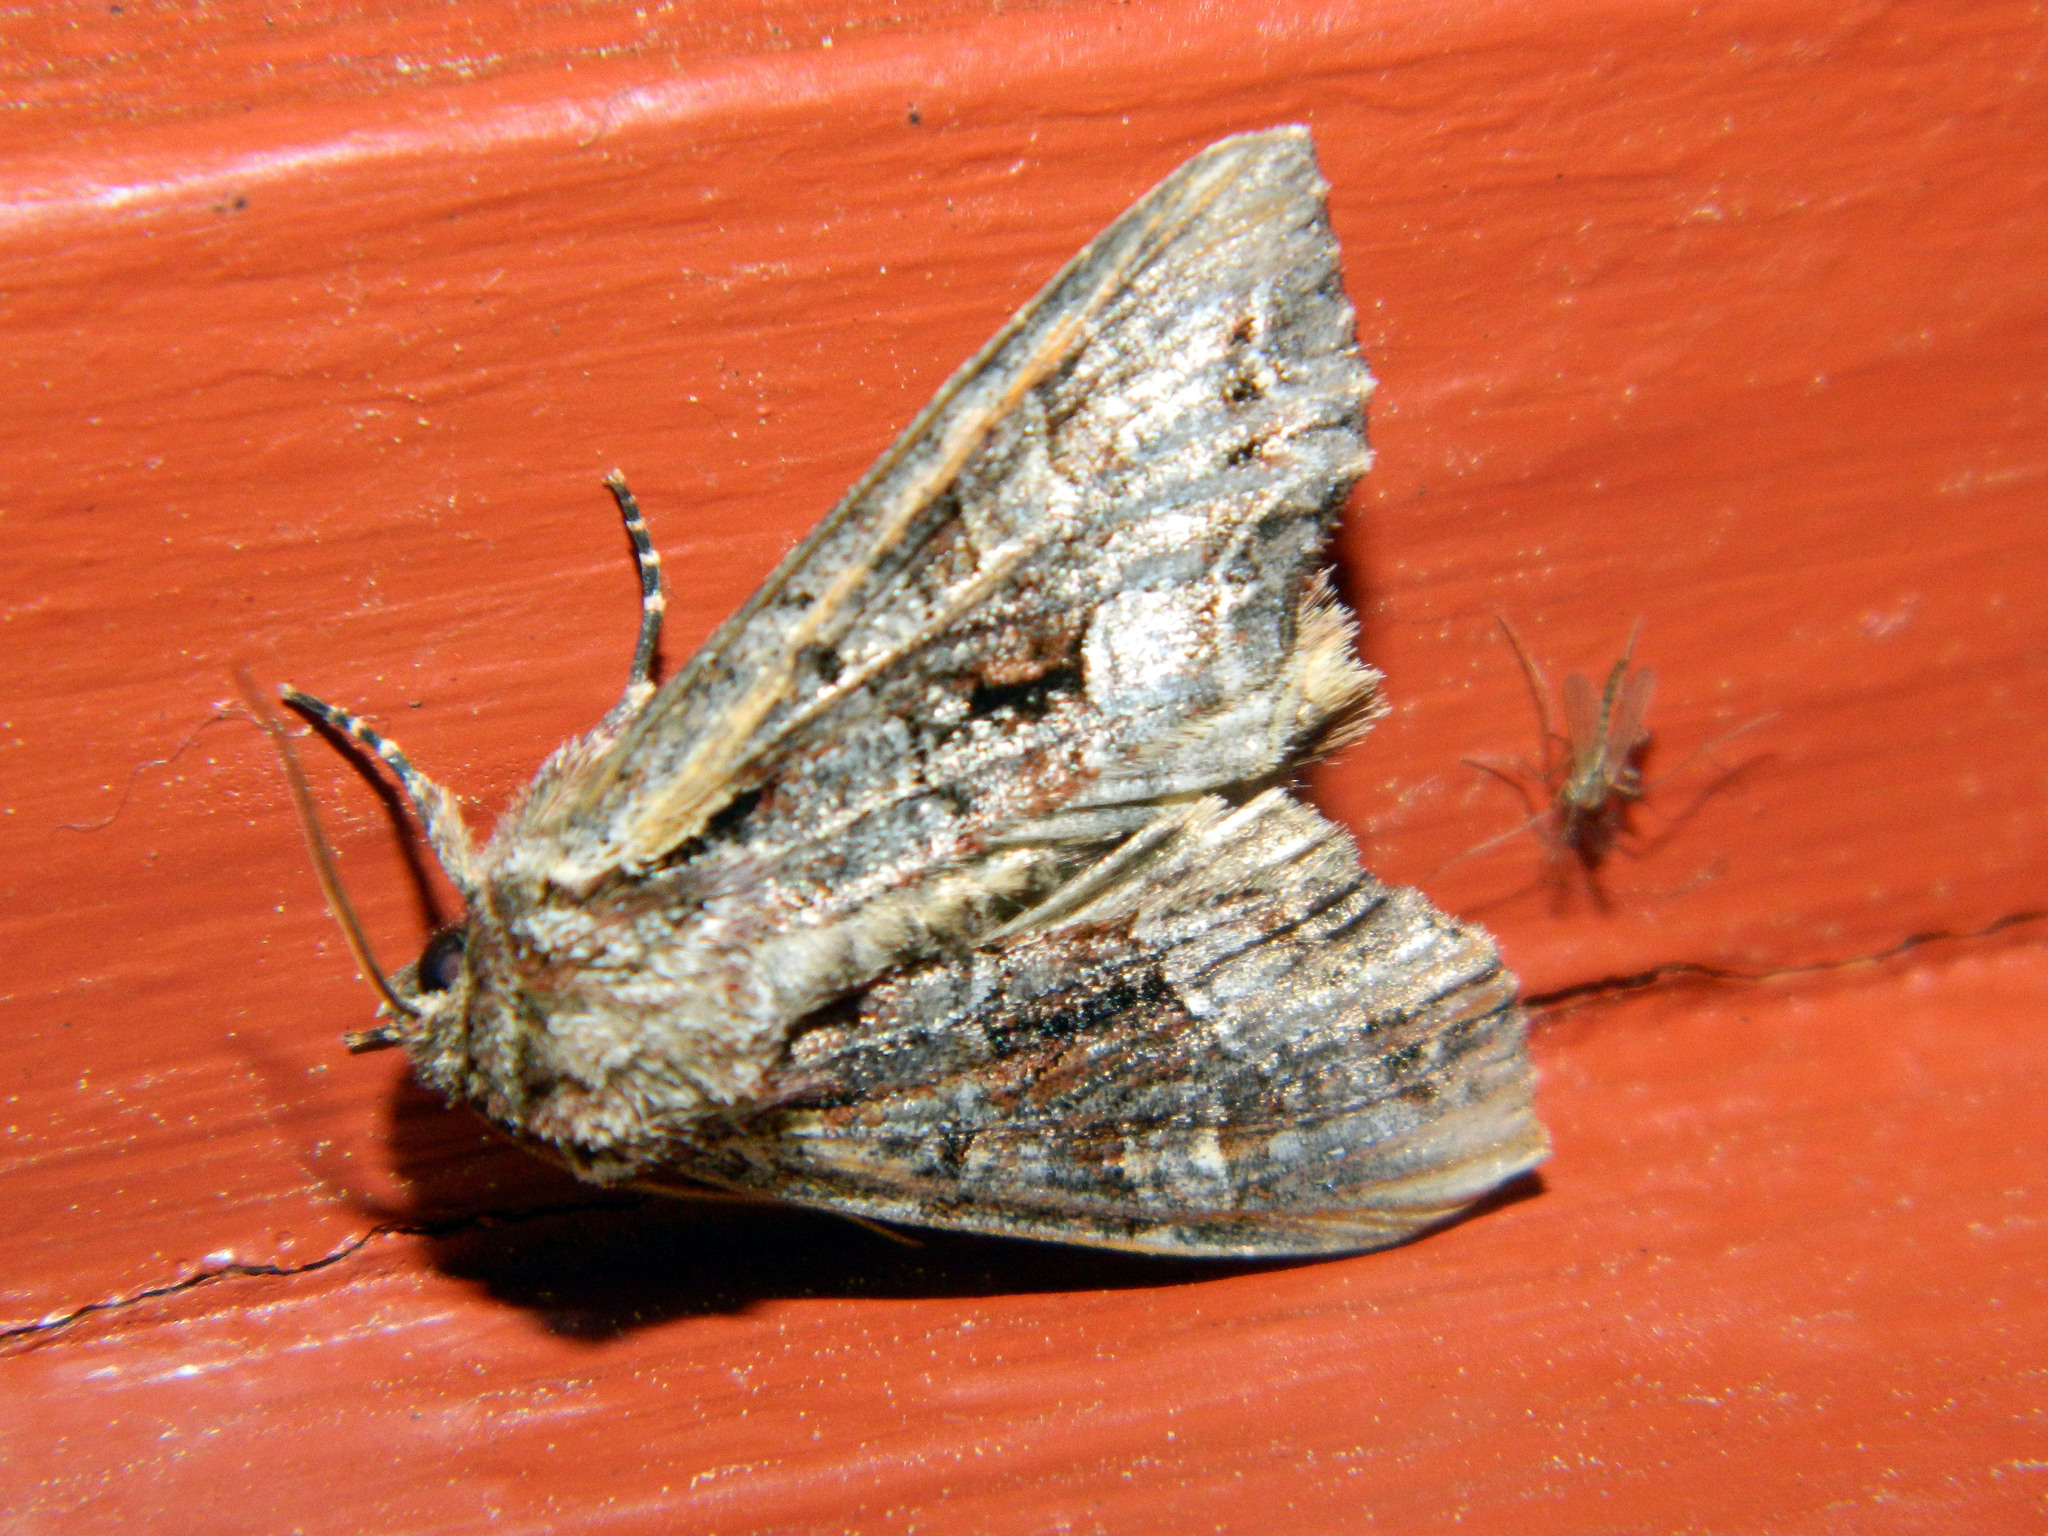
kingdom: Animalia
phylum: Arthropoda
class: Insecta
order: Lepidoptera
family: Noctuidae
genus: Lacanobia
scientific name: Lacanobia grandis
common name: Grand arches moth
